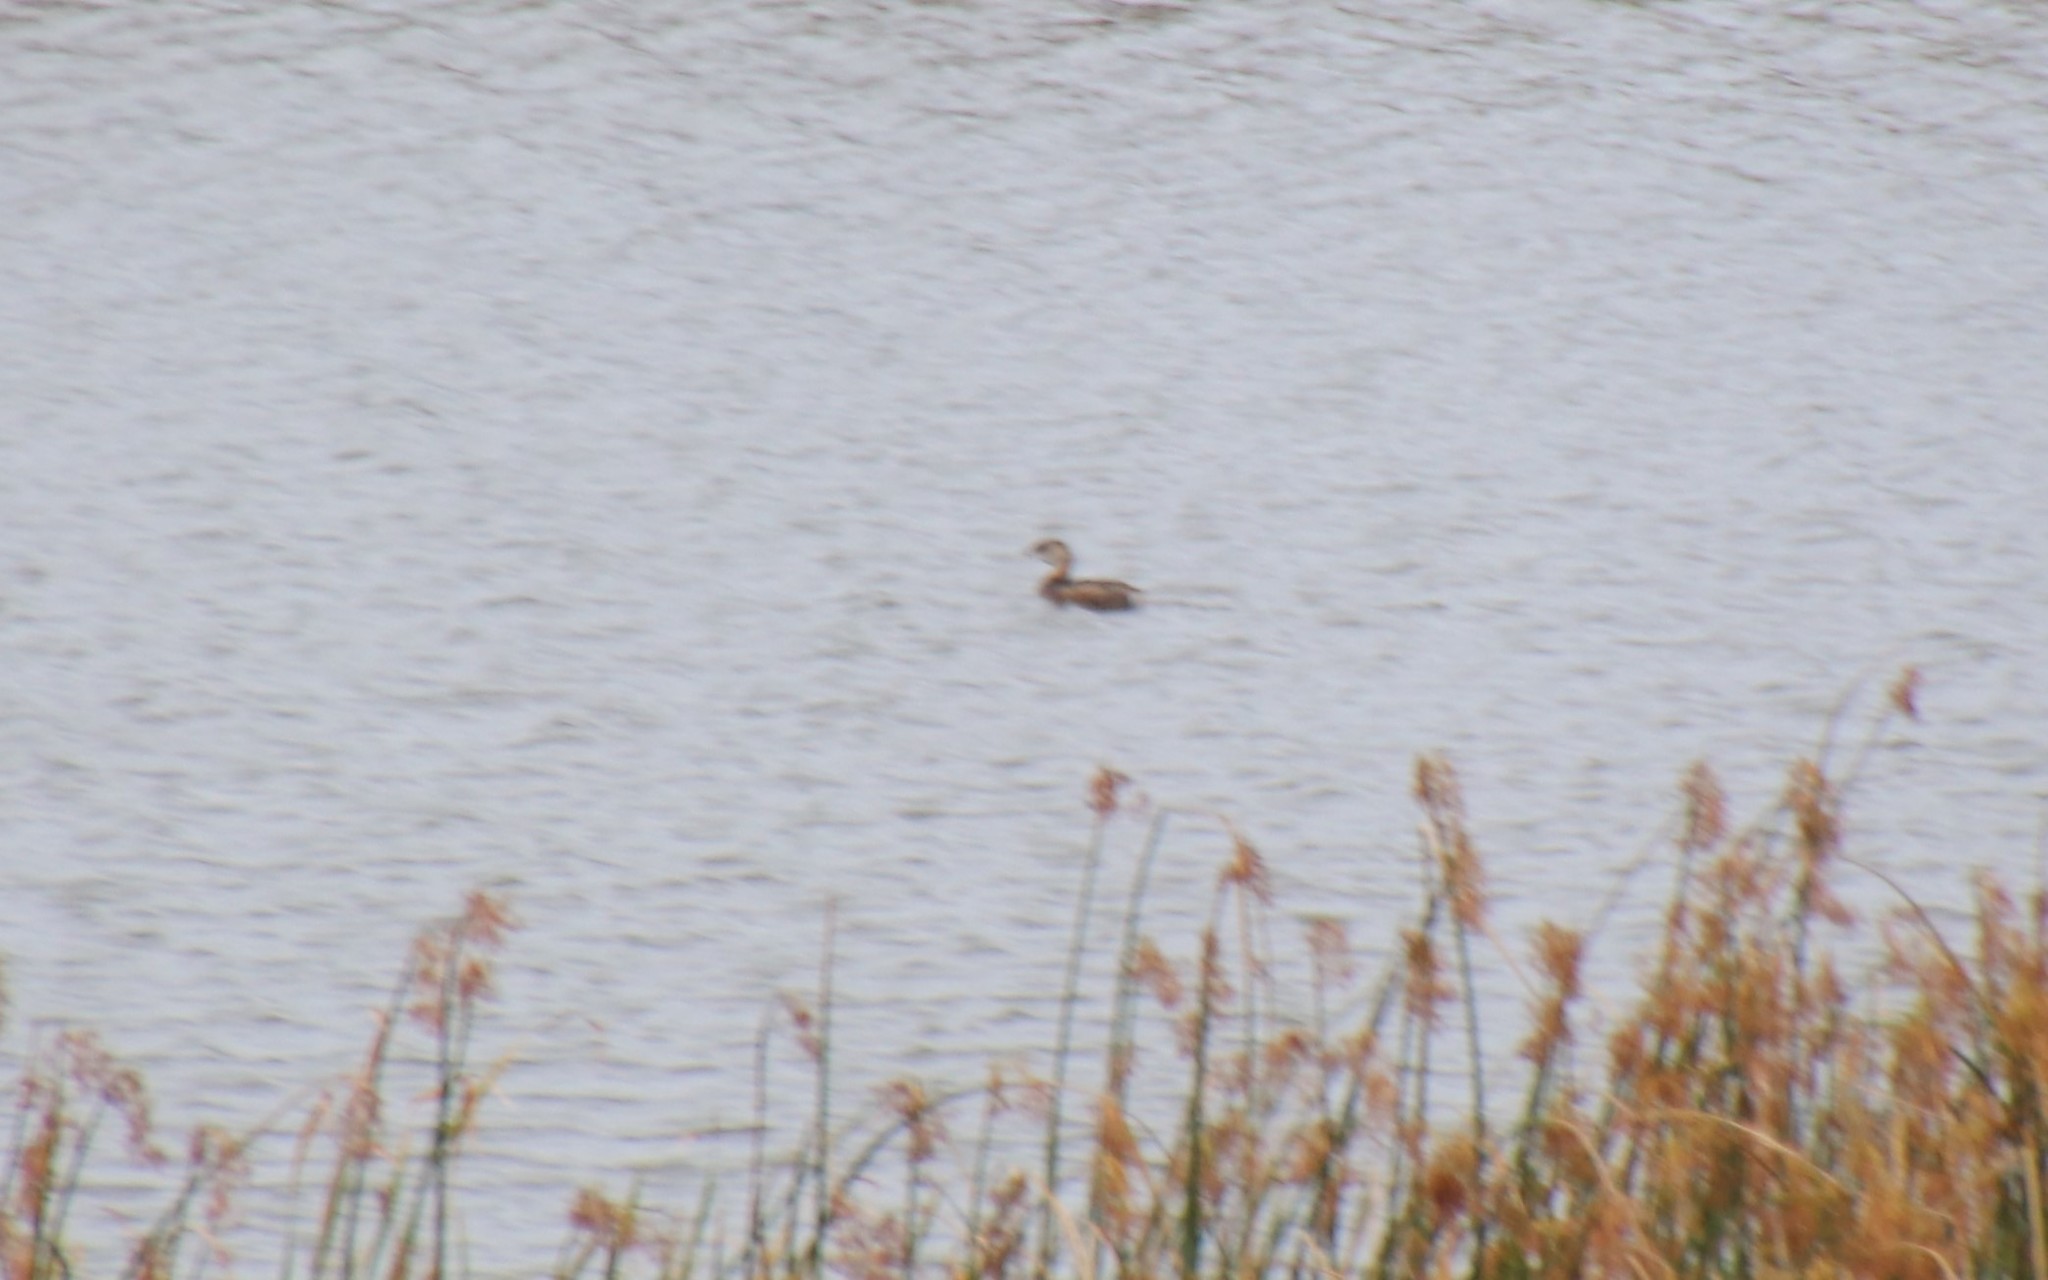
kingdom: Animalia
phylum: Chordata
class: Aves
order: Podicipediformes
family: Podicipedidae
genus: Podilymbus
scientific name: Podilymbus podiceps
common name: Pied-billed grebe
